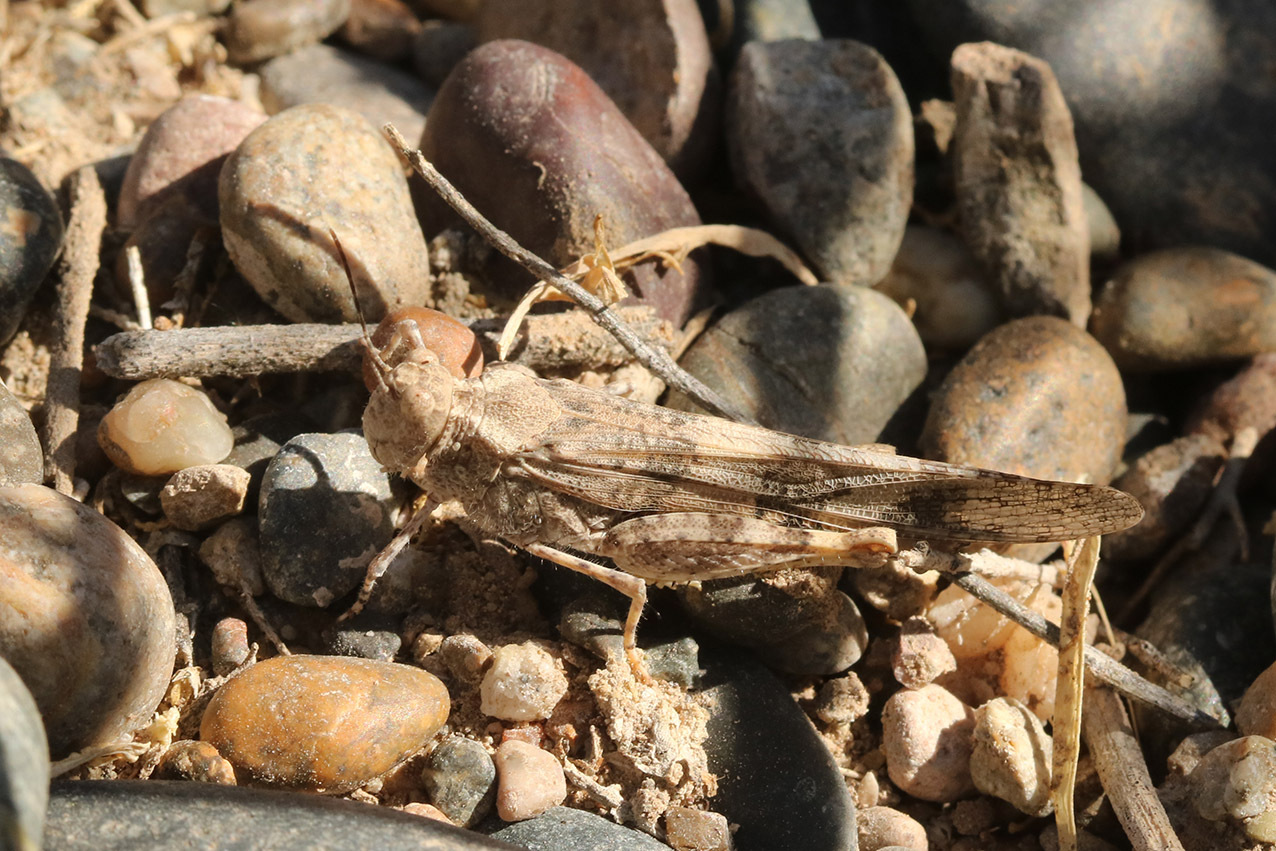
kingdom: Animalia
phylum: Arthropoda
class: Insecta
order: Orthoptera
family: Acrididae
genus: Trimerotropis
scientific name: Trimerotropis pallidipennis
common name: Pallid-winged grasshopper
